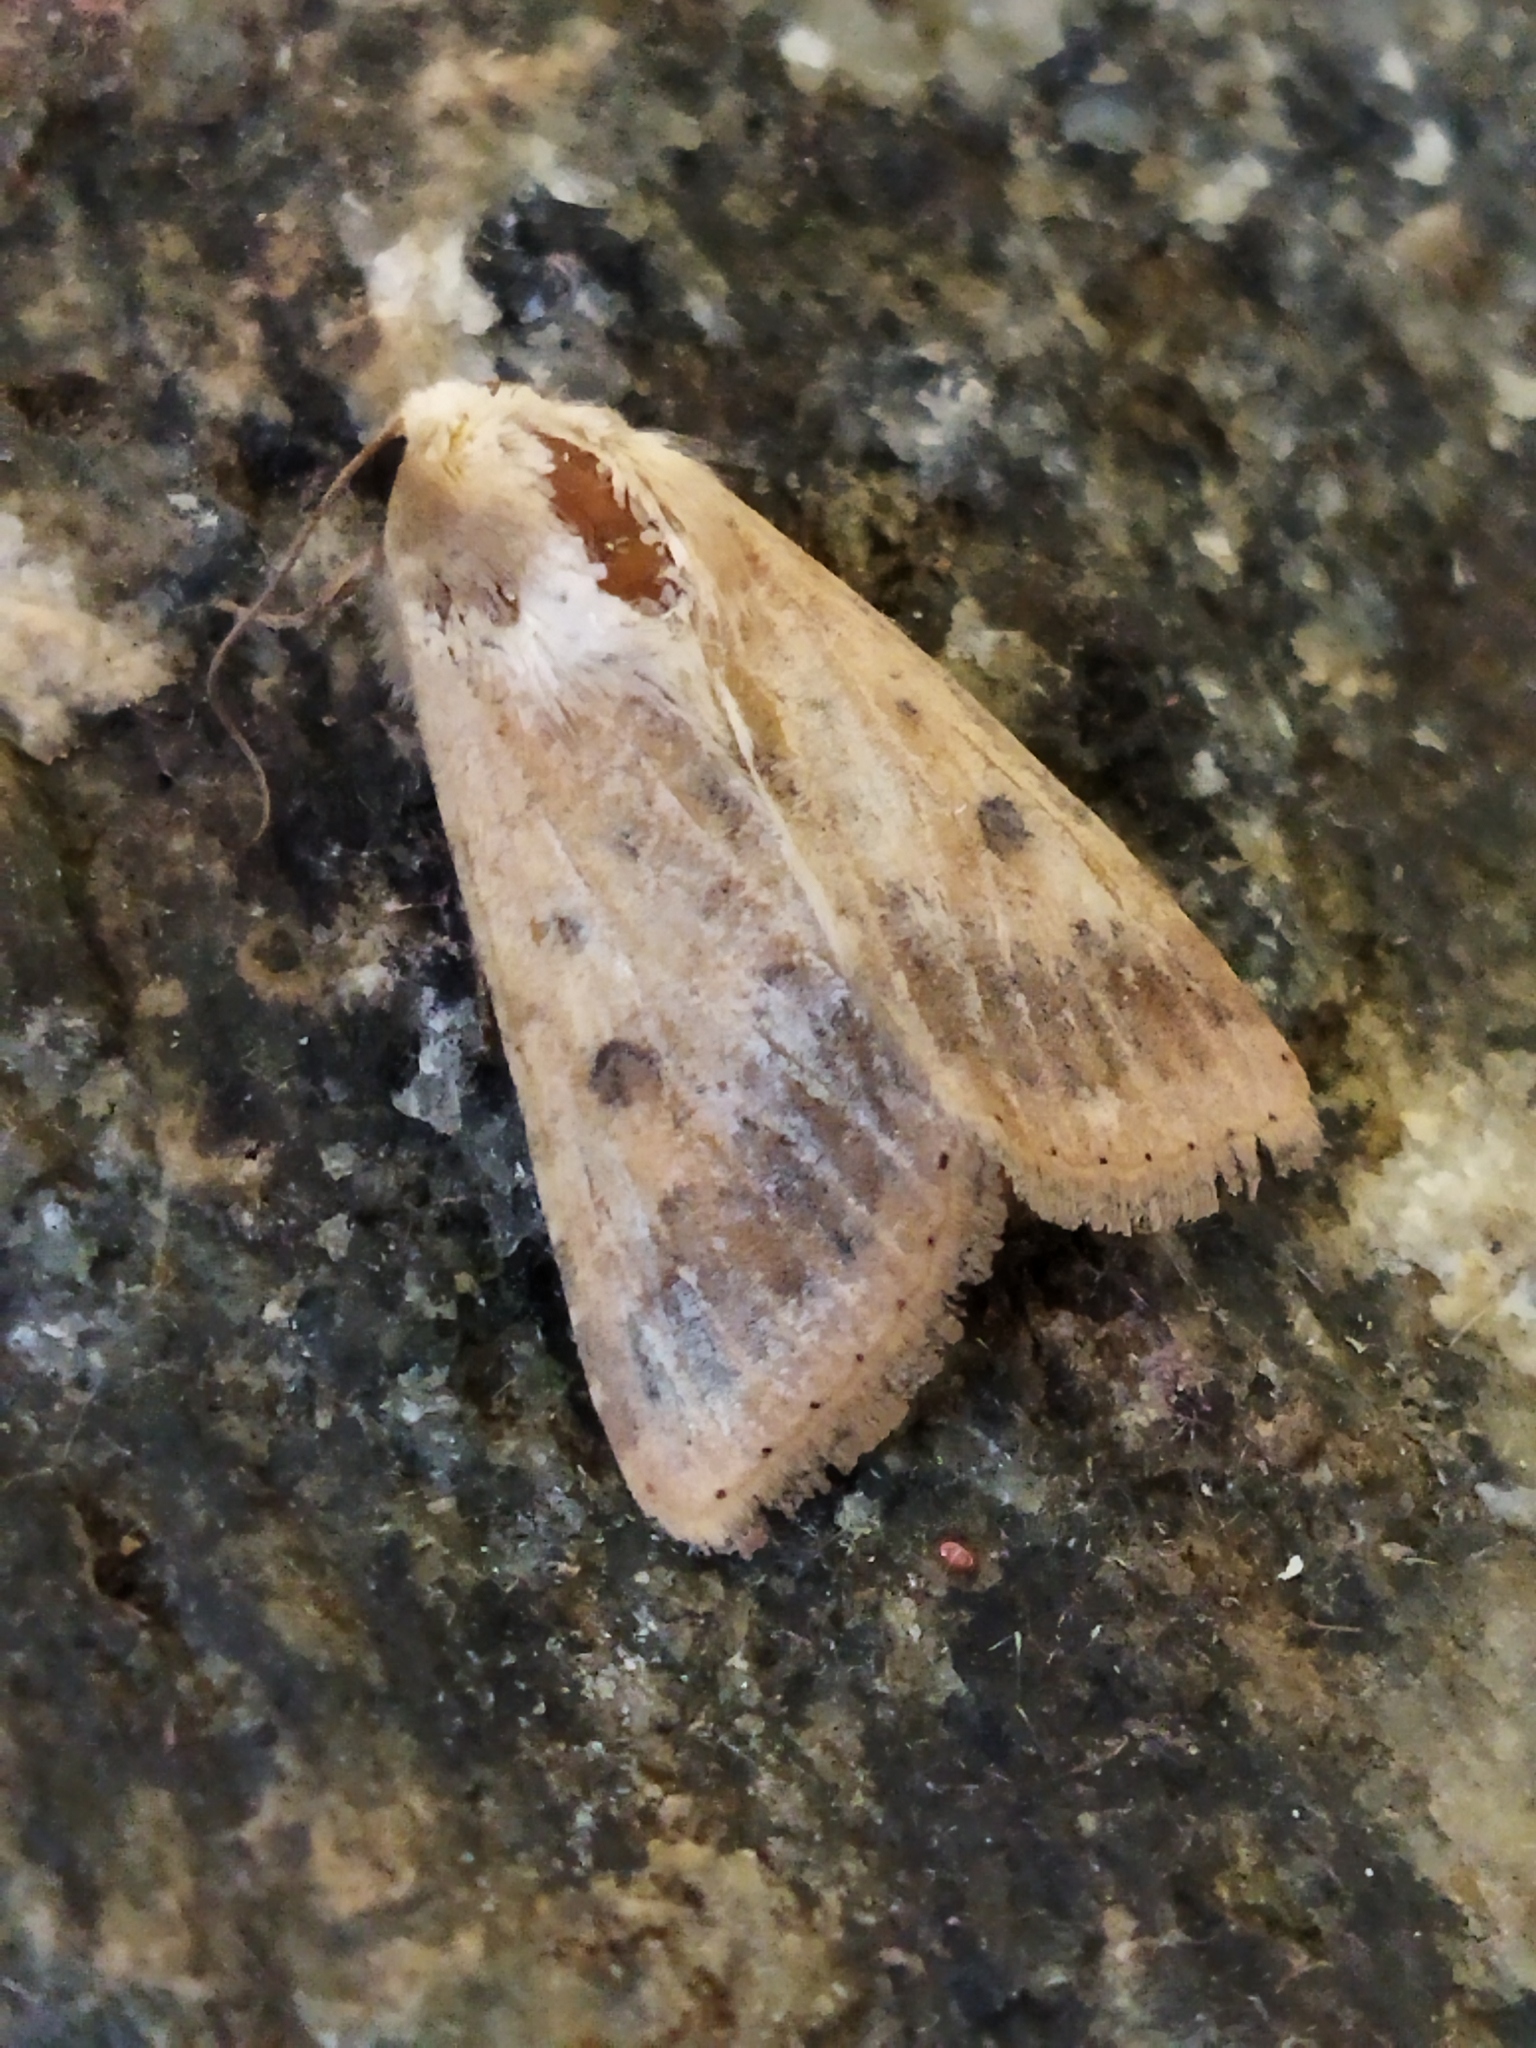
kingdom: Animalia
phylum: Arthropoda
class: Insecta
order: Lepidoptera
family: Noctuidae
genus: Helicoverpa
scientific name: Helicoverpa armigera
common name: Cotton bollworm
